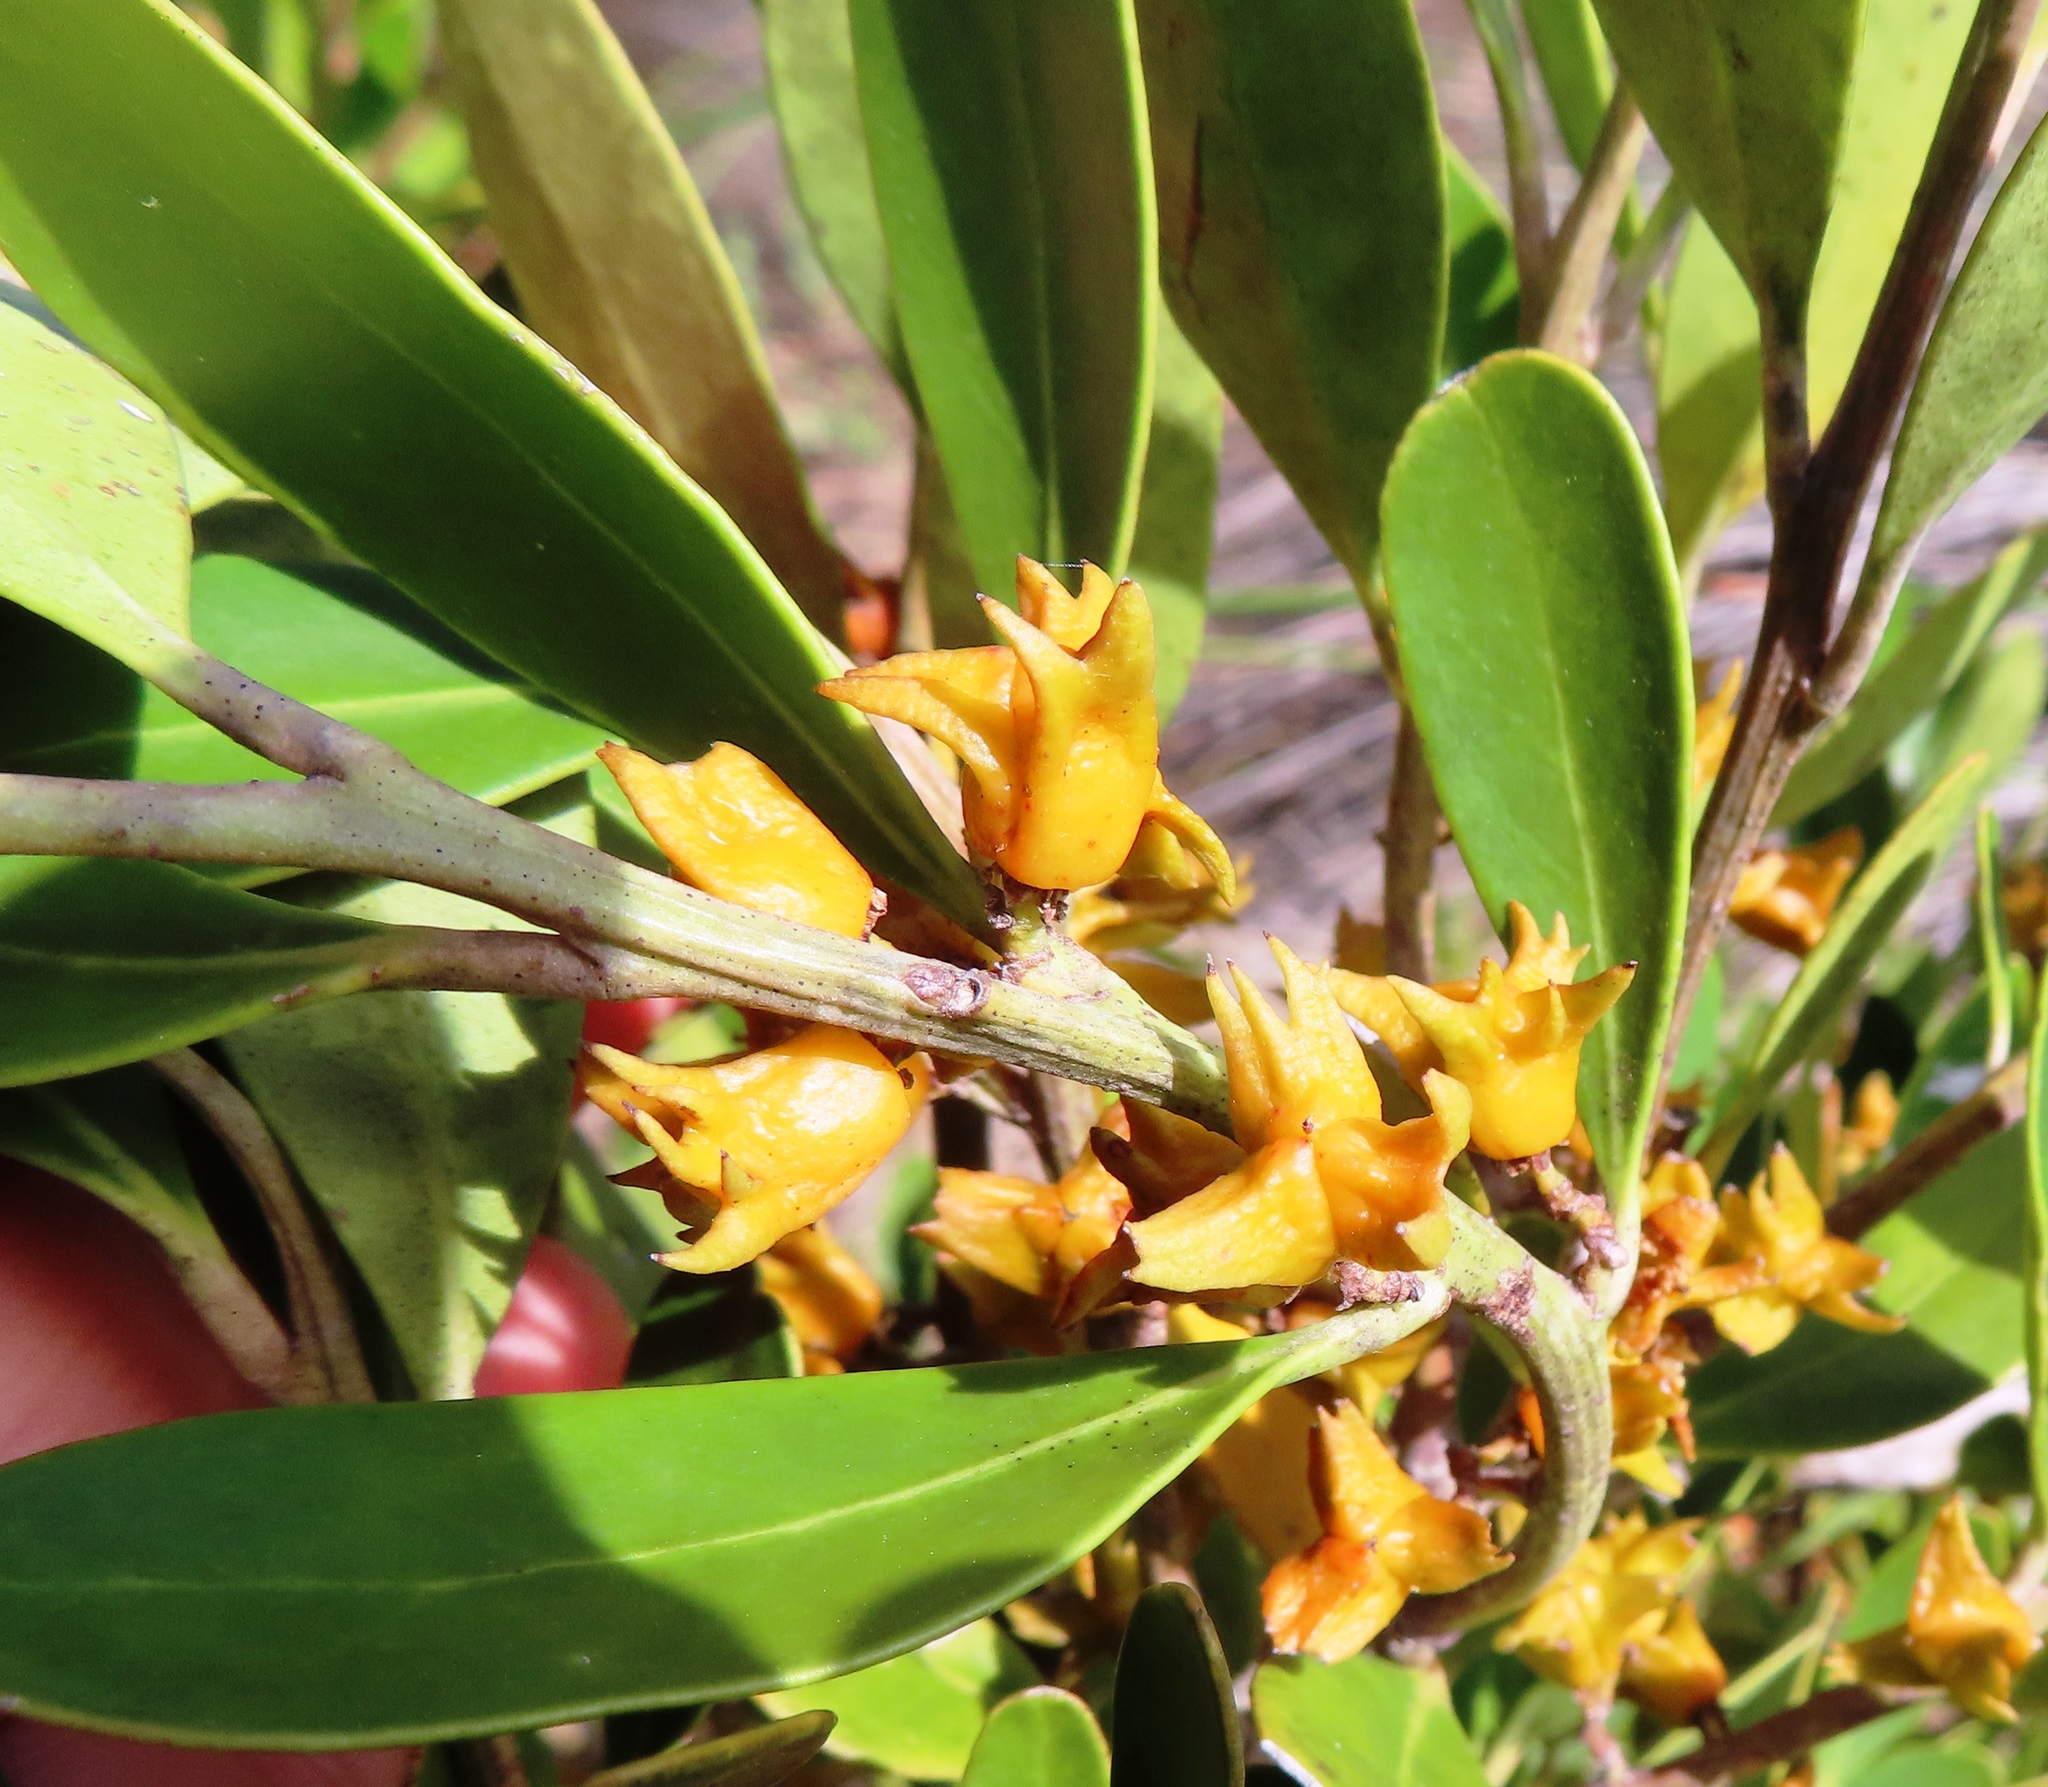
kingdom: Plantae
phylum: Tracheophyta
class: Magnoliopsida
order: Celastrales
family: Celastraceae
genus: Pterocelastrus
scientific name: Pterocelastrus tricuspidatus
